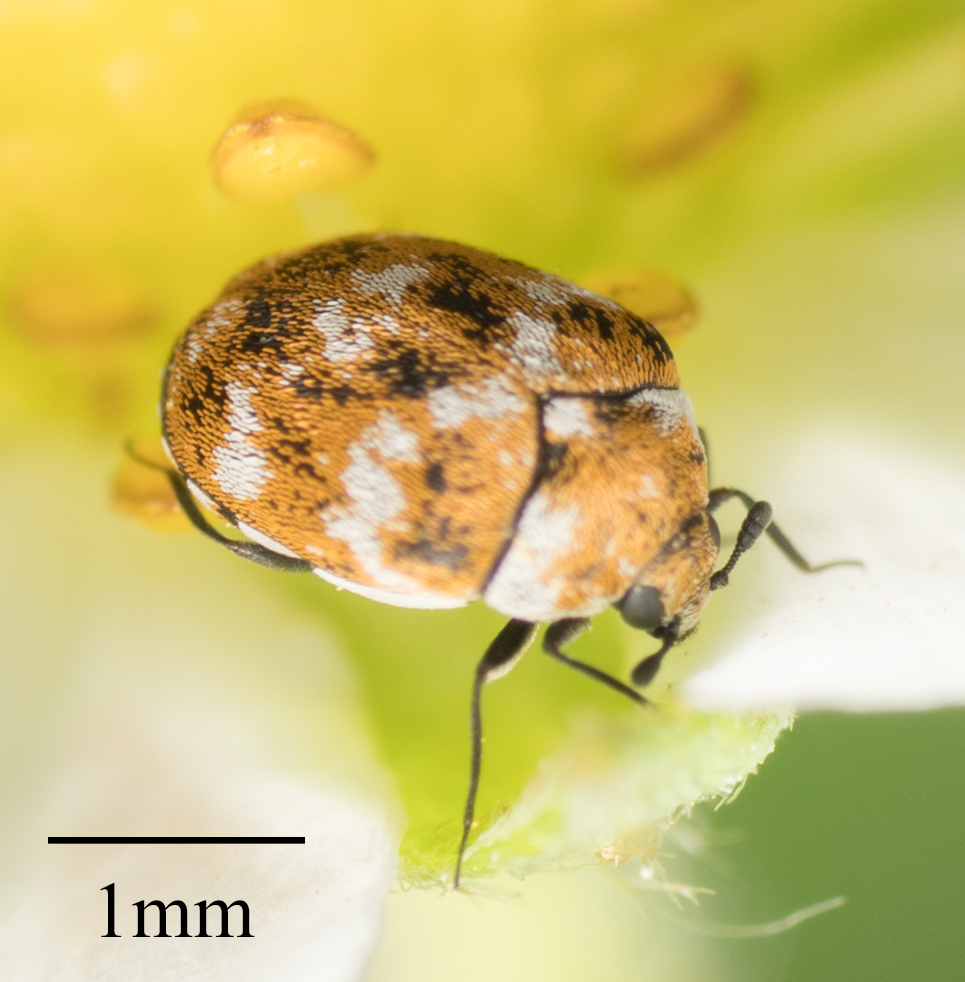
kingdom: Animalia
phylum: Arthropoda
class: Insecta
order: Coleoptera
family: Dermestidae
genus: Anthrenus
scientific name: Anthrenus verbasci
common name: Varied carpet beetle
